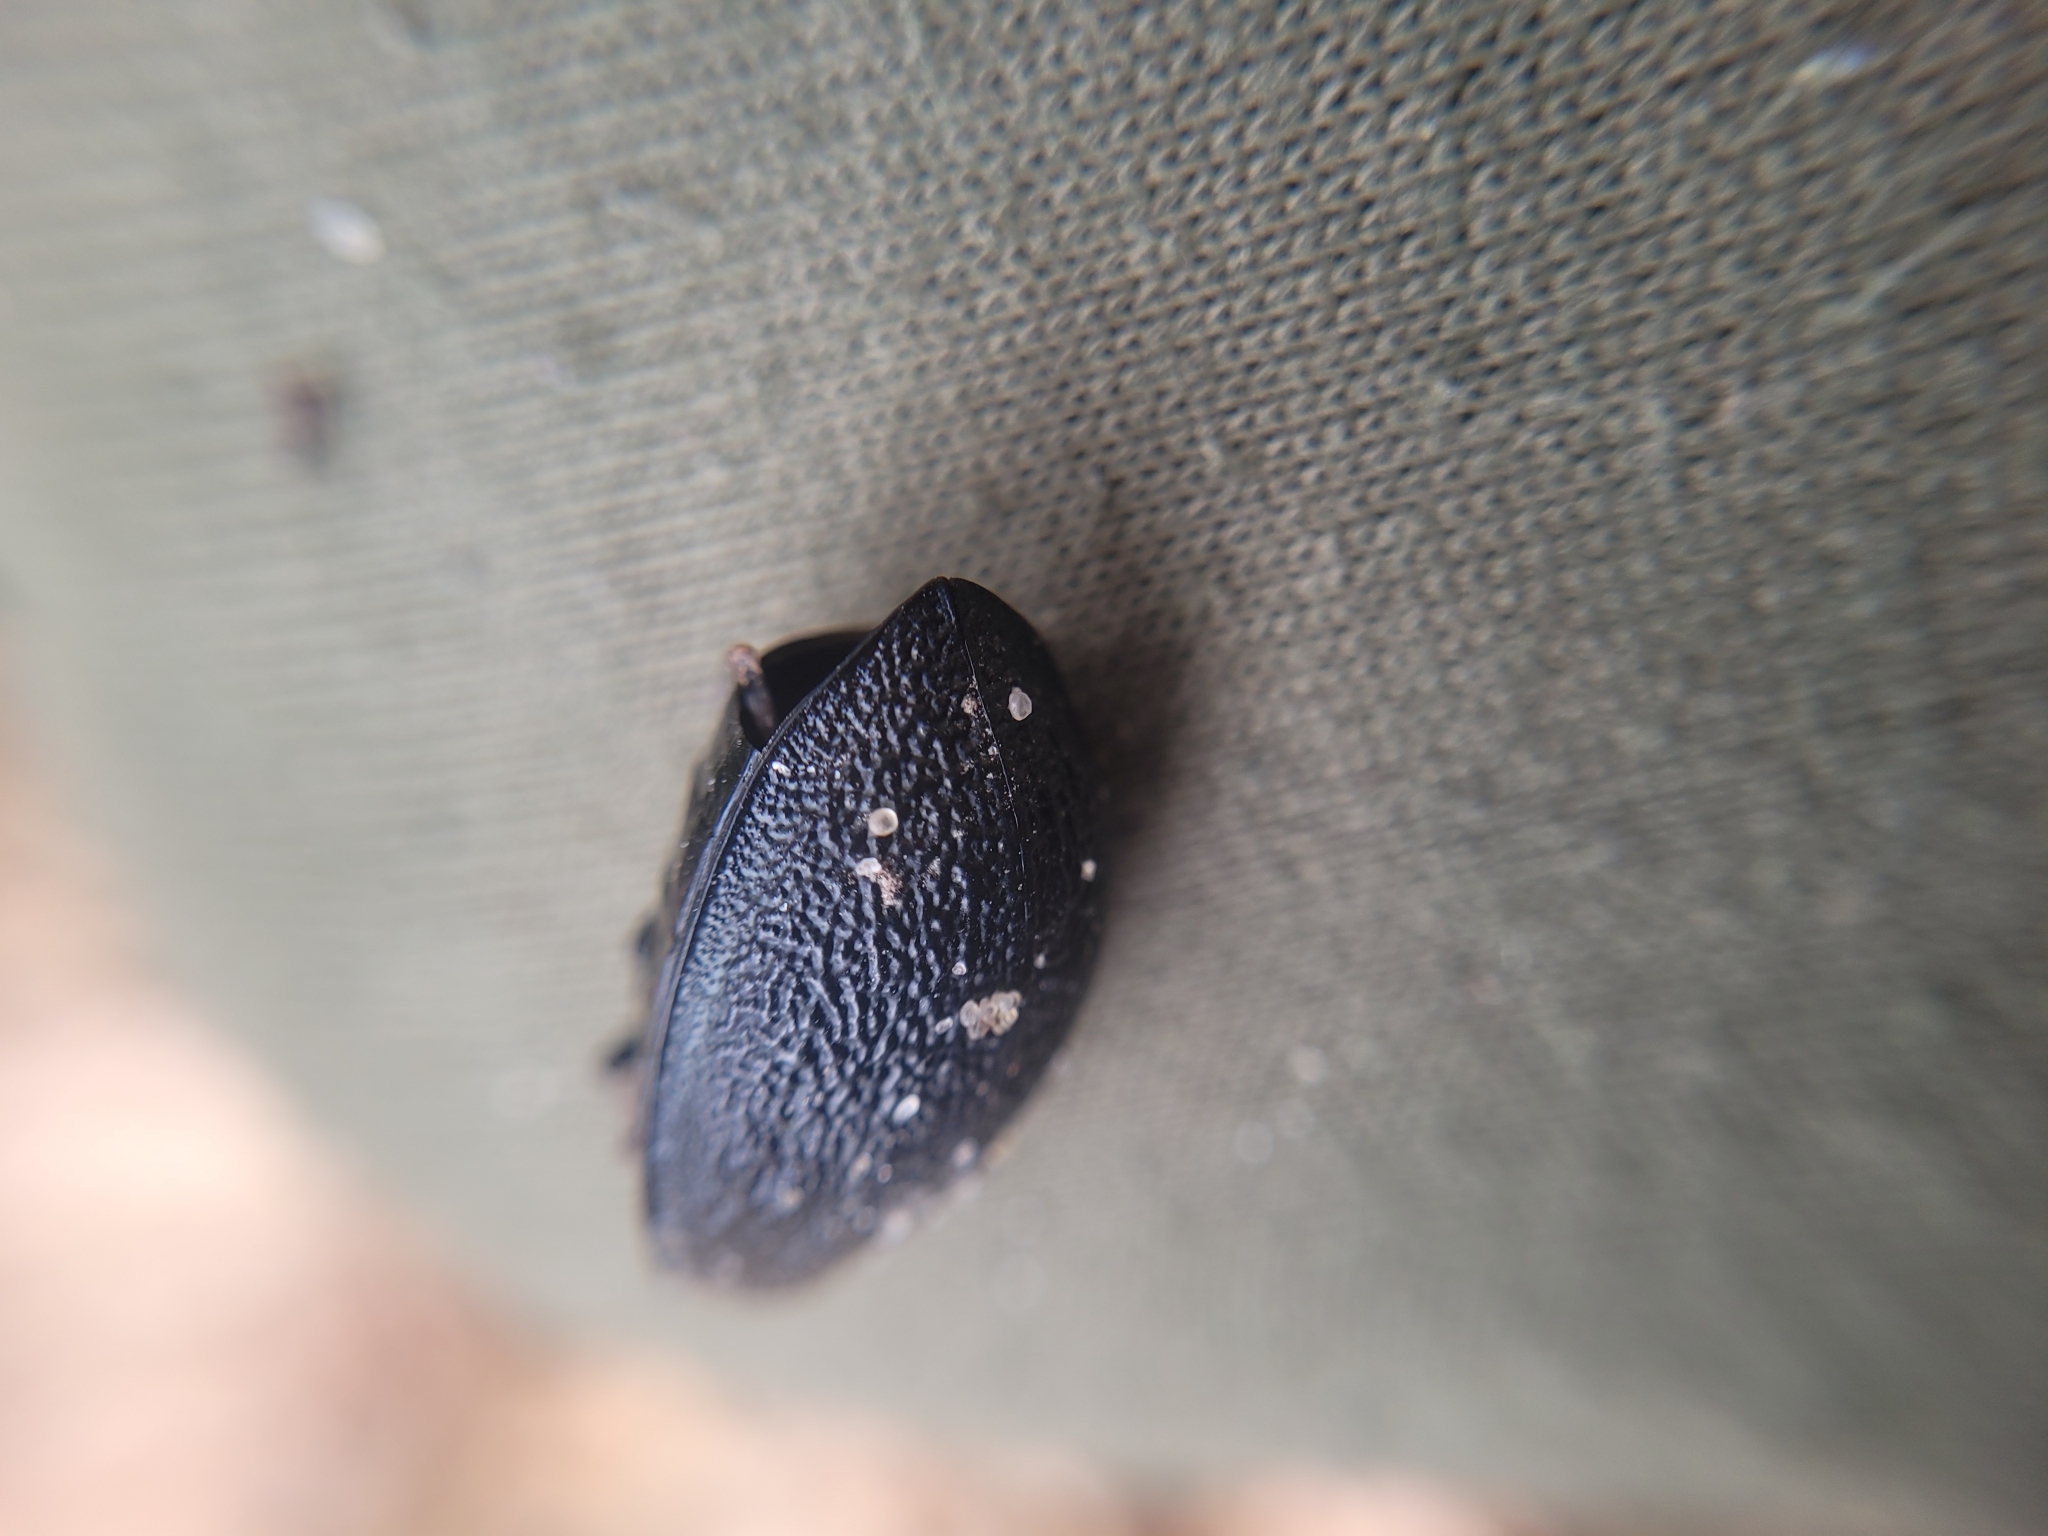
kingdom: Animalia
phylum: Arthropoda
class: Insecta
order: Coleoptera
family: Carabidae
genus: Carabus
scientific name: Carabus coriaceus
